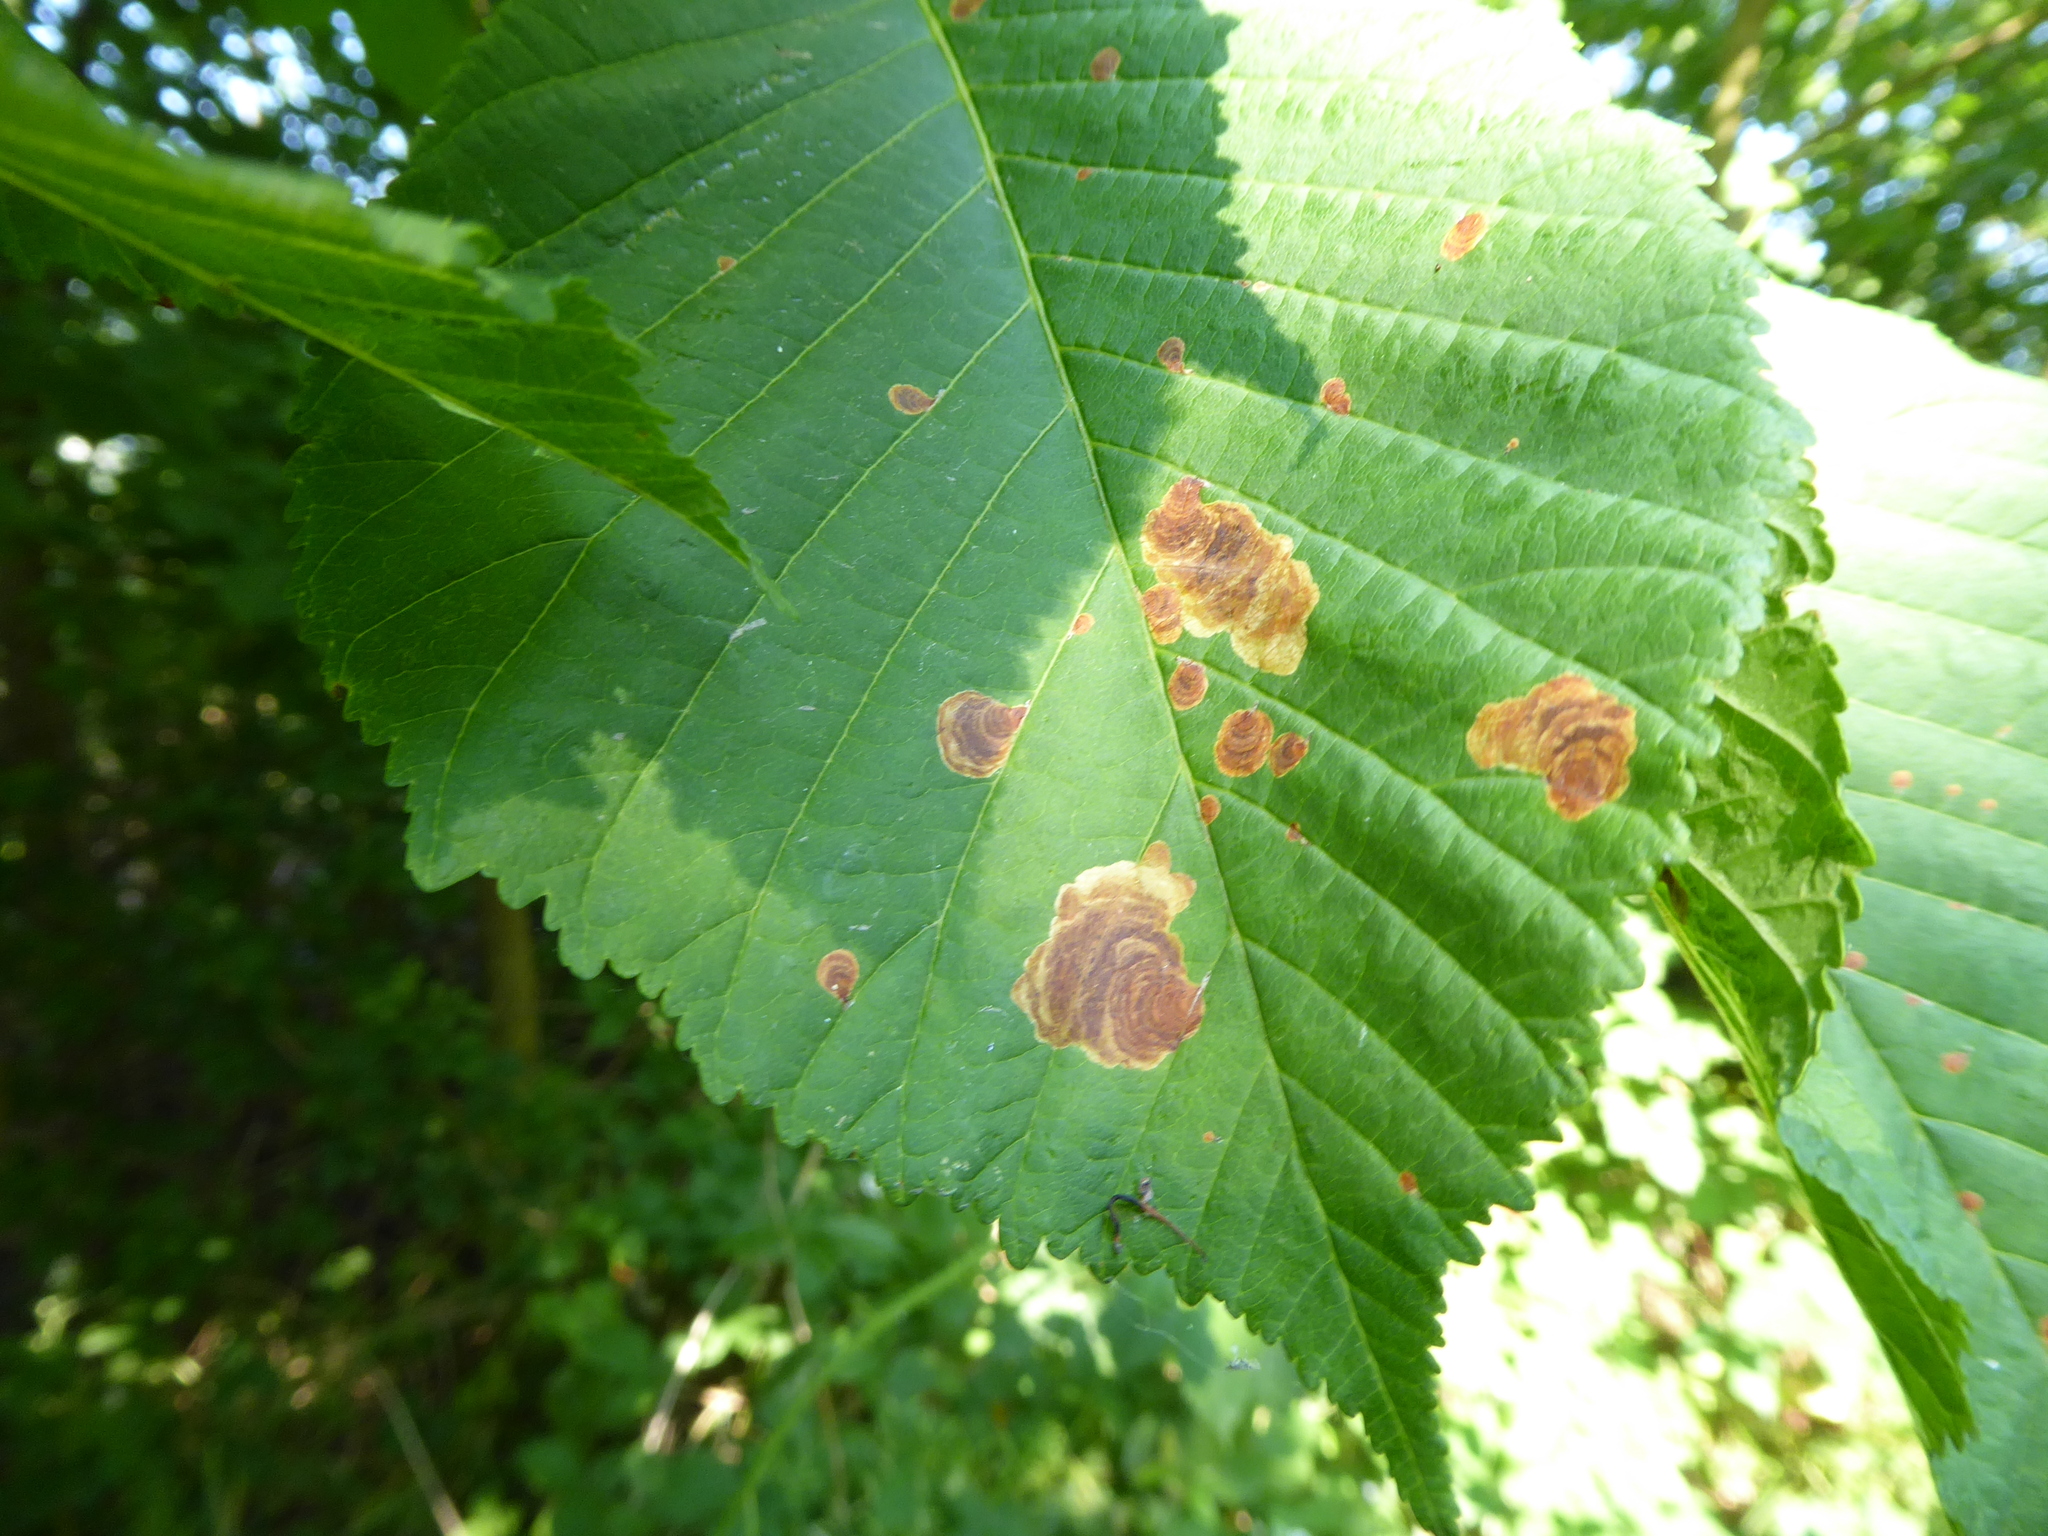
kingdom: Animalia
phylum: Arthropoda
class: Insecta
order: Lepidoptera
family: Gracillariidae
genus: Cameraria
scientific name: Cameraria ohridella
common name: Horse-chestnut leaf-miner
